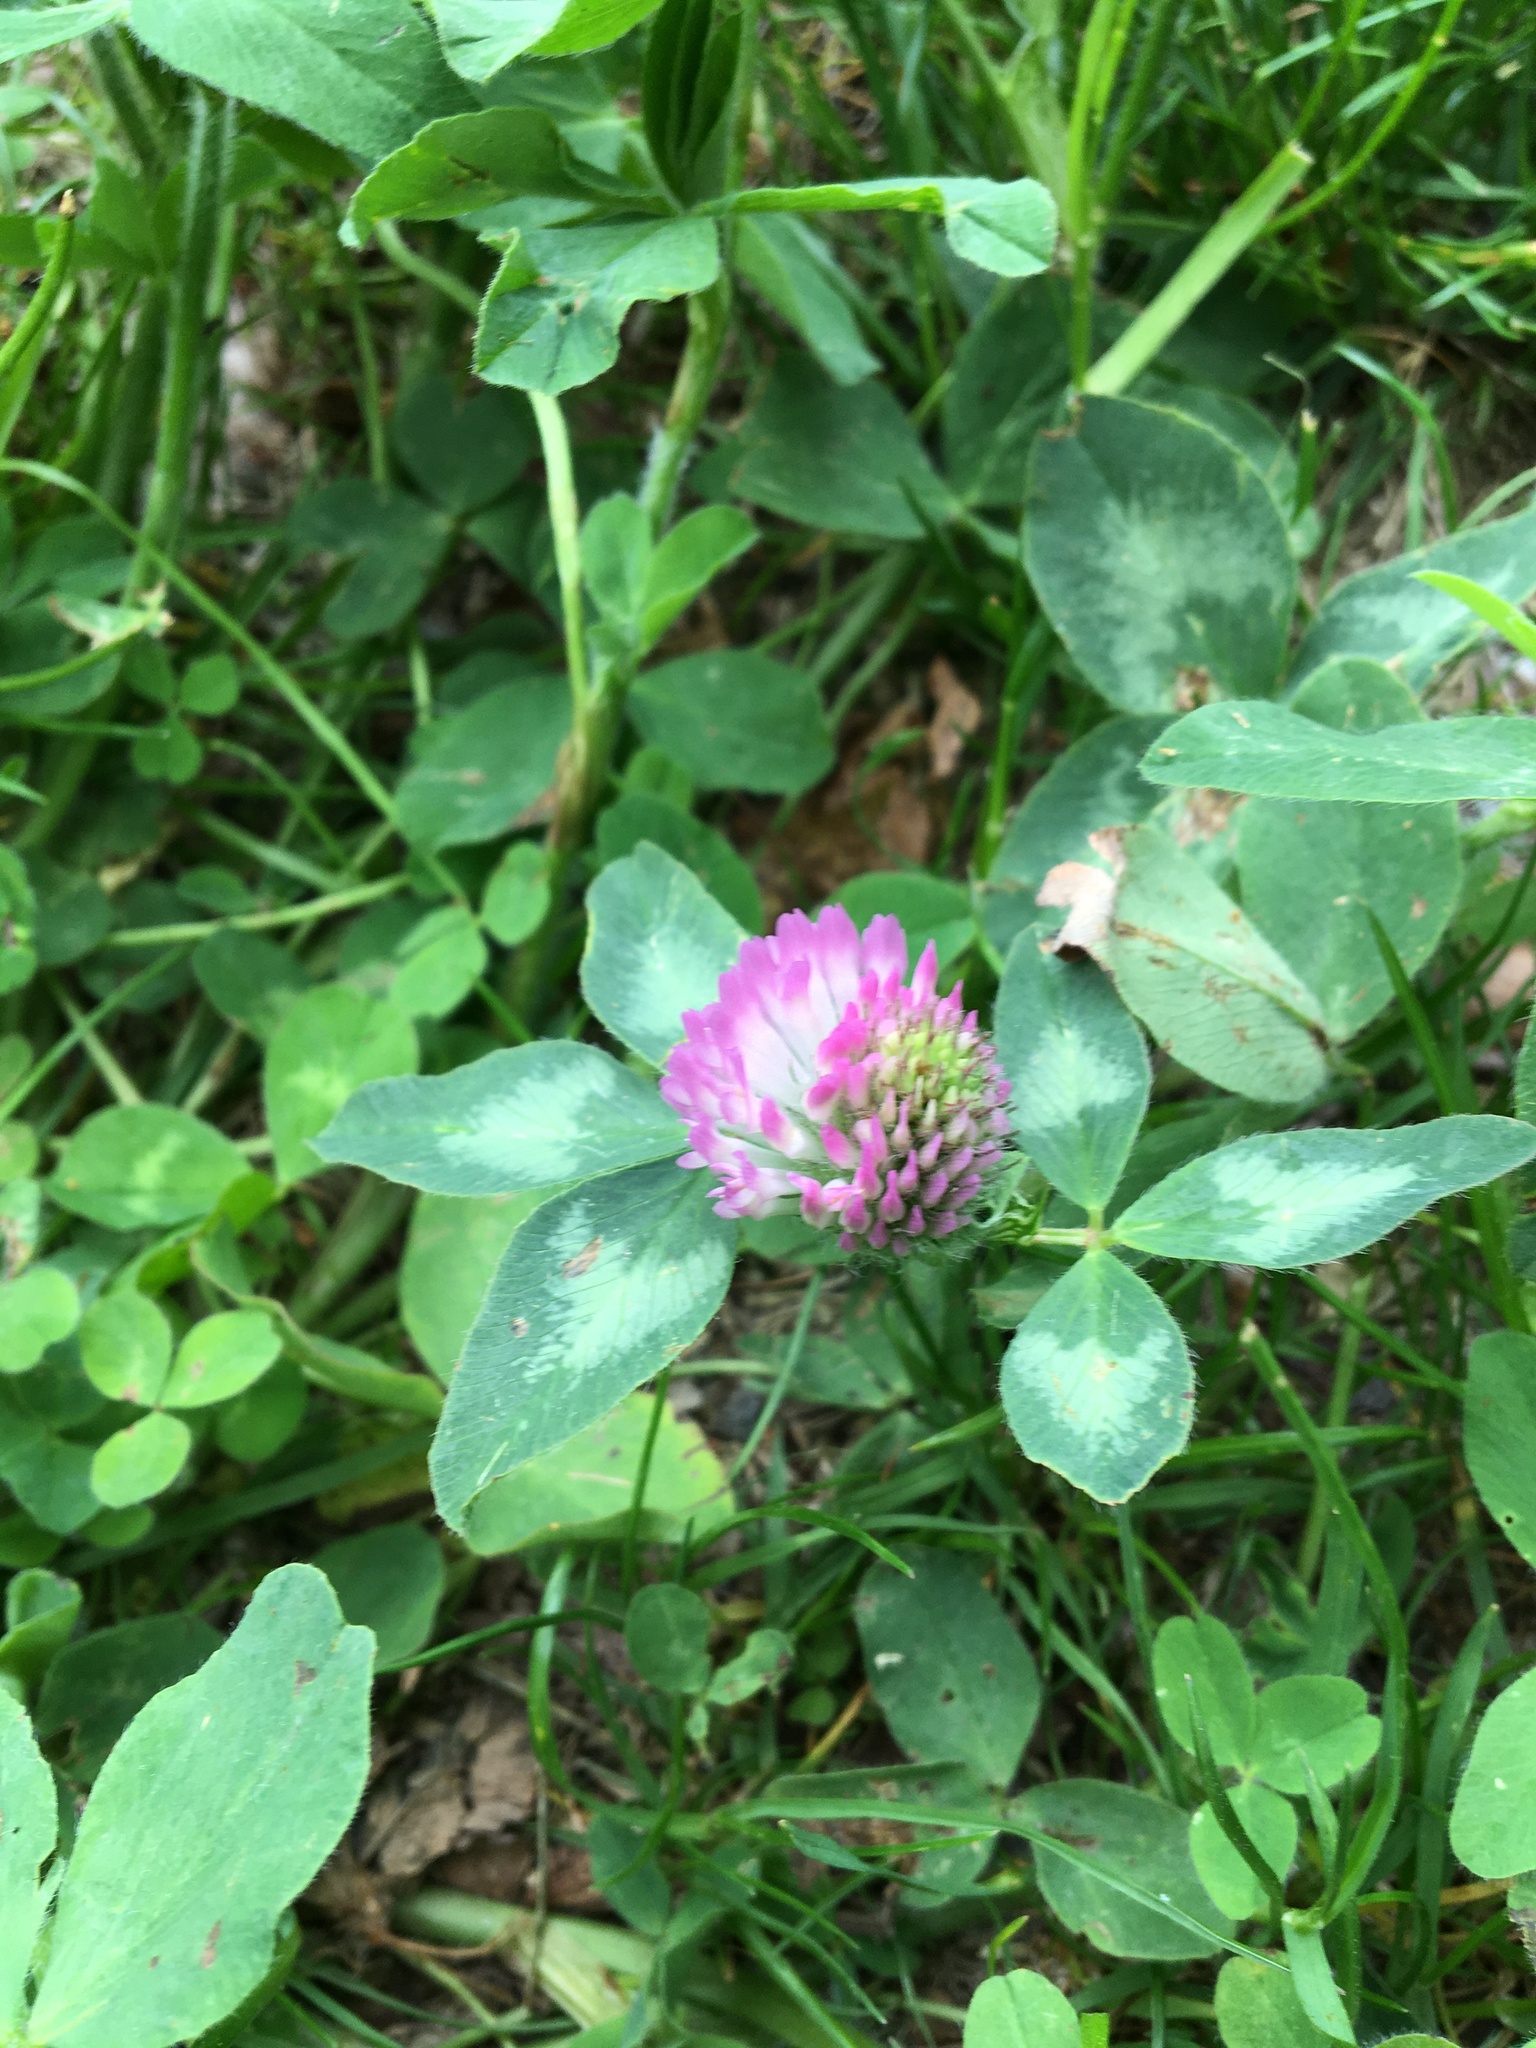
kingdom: Plantae
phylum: Tracheophyta
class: Magnoliopsida
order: Fabales
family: Fabaceae
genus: Trifolium
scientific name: Trifolium pratense
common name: Red clover
